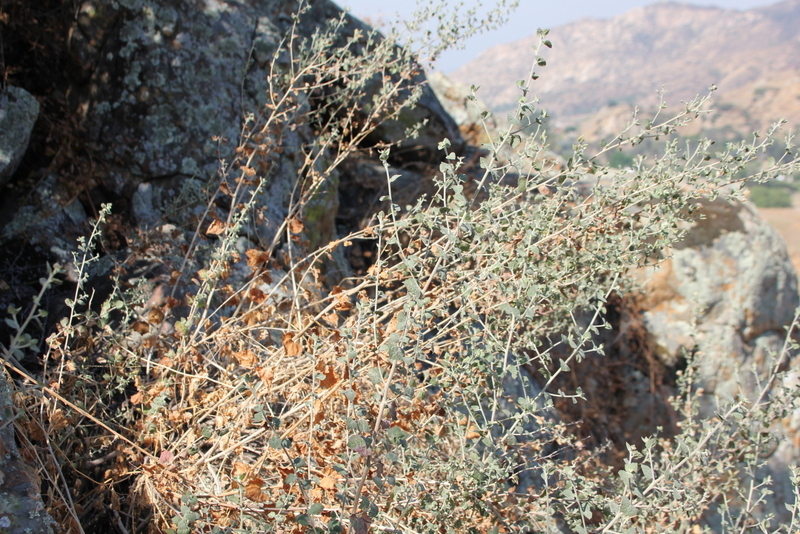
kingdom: Plantae
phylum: Tracheophyta
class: Magnoliopsida
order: Asterales
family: Asteraceae
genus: Brickellia
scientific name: Brickellia californica
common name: California brickellbush
